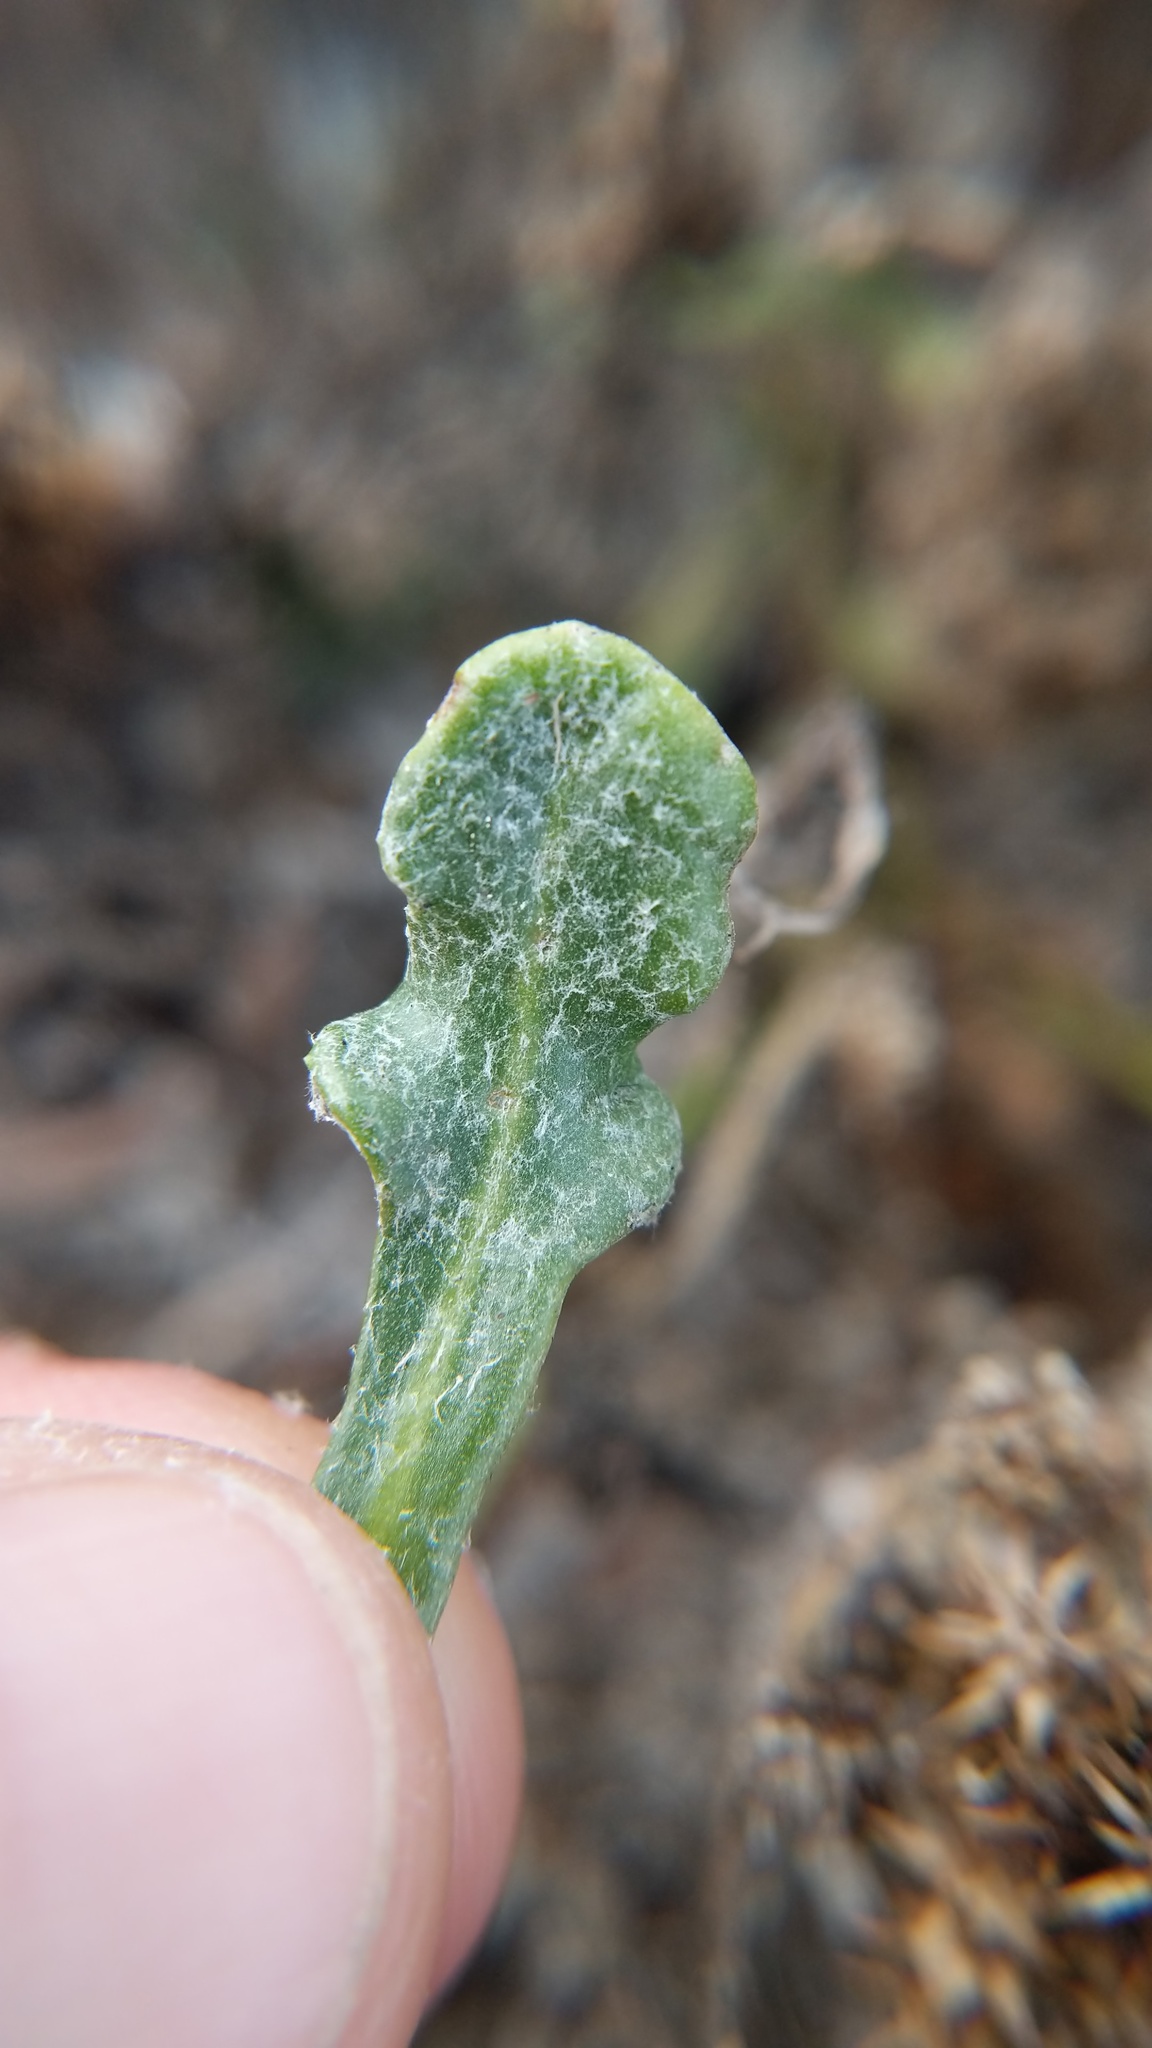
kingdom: Plantae
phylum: Tracheophyta
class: Magnoliopsida
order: Asterales
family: Asteraceae
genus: Malacothrix
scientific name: Malacothrix incana
